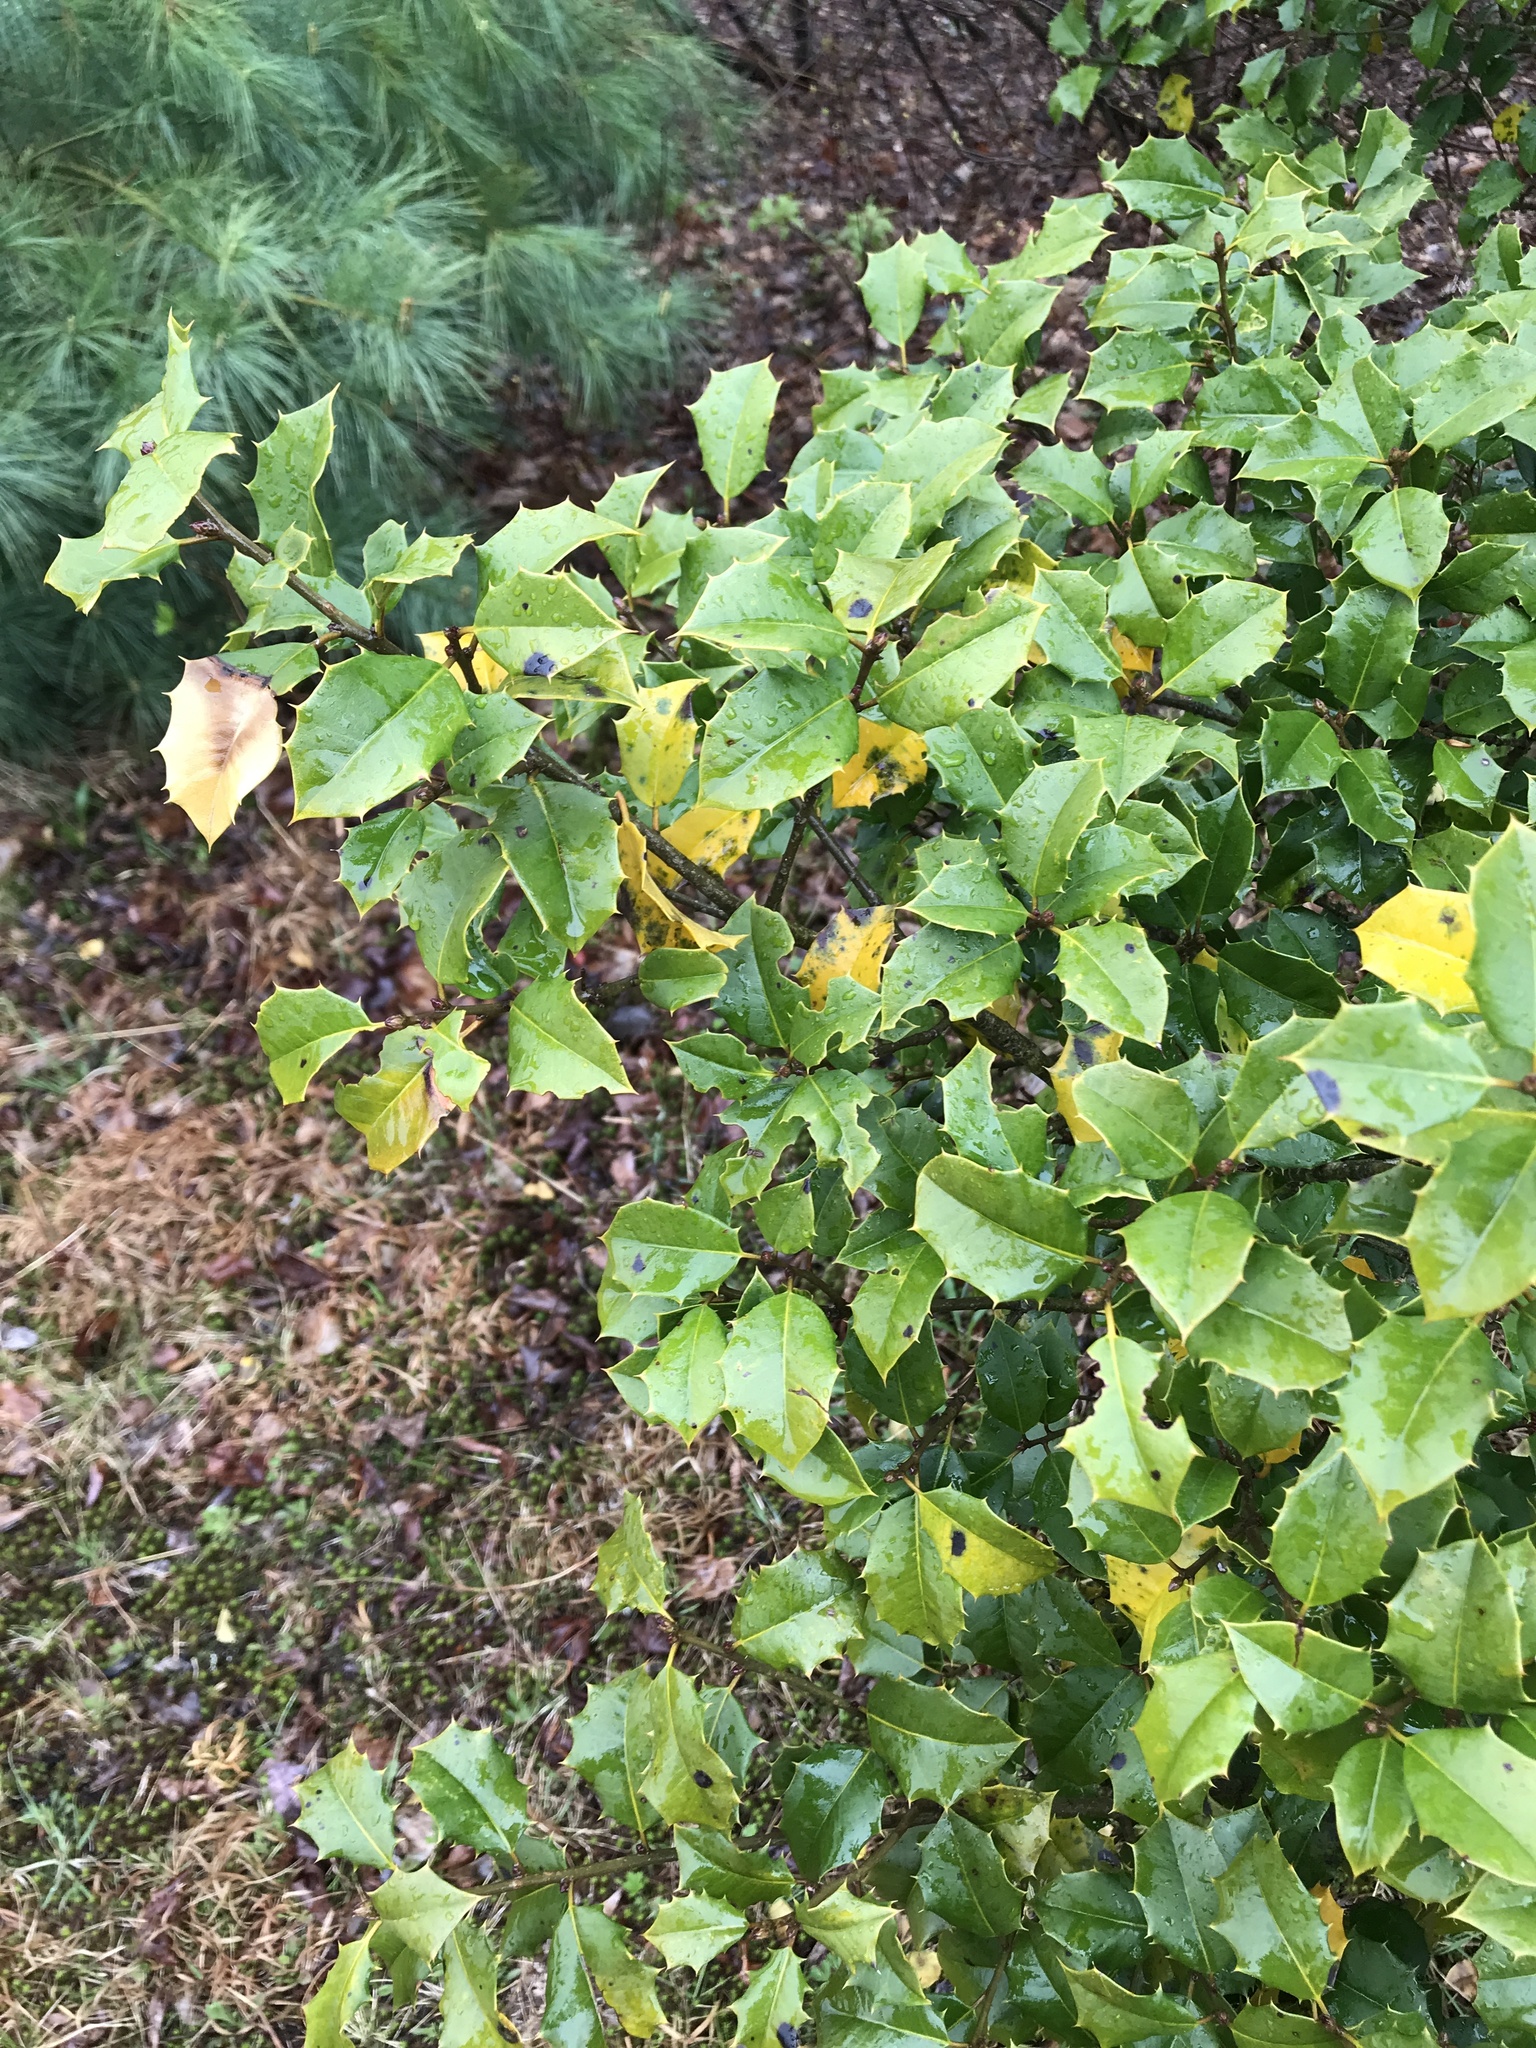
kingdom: Plantae
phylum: Tracheophyta
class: Magnoliopsida
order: Aquifoliales
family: Aquifoliaceae
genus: Ilex
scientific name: Ilex opaca
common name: American holly
